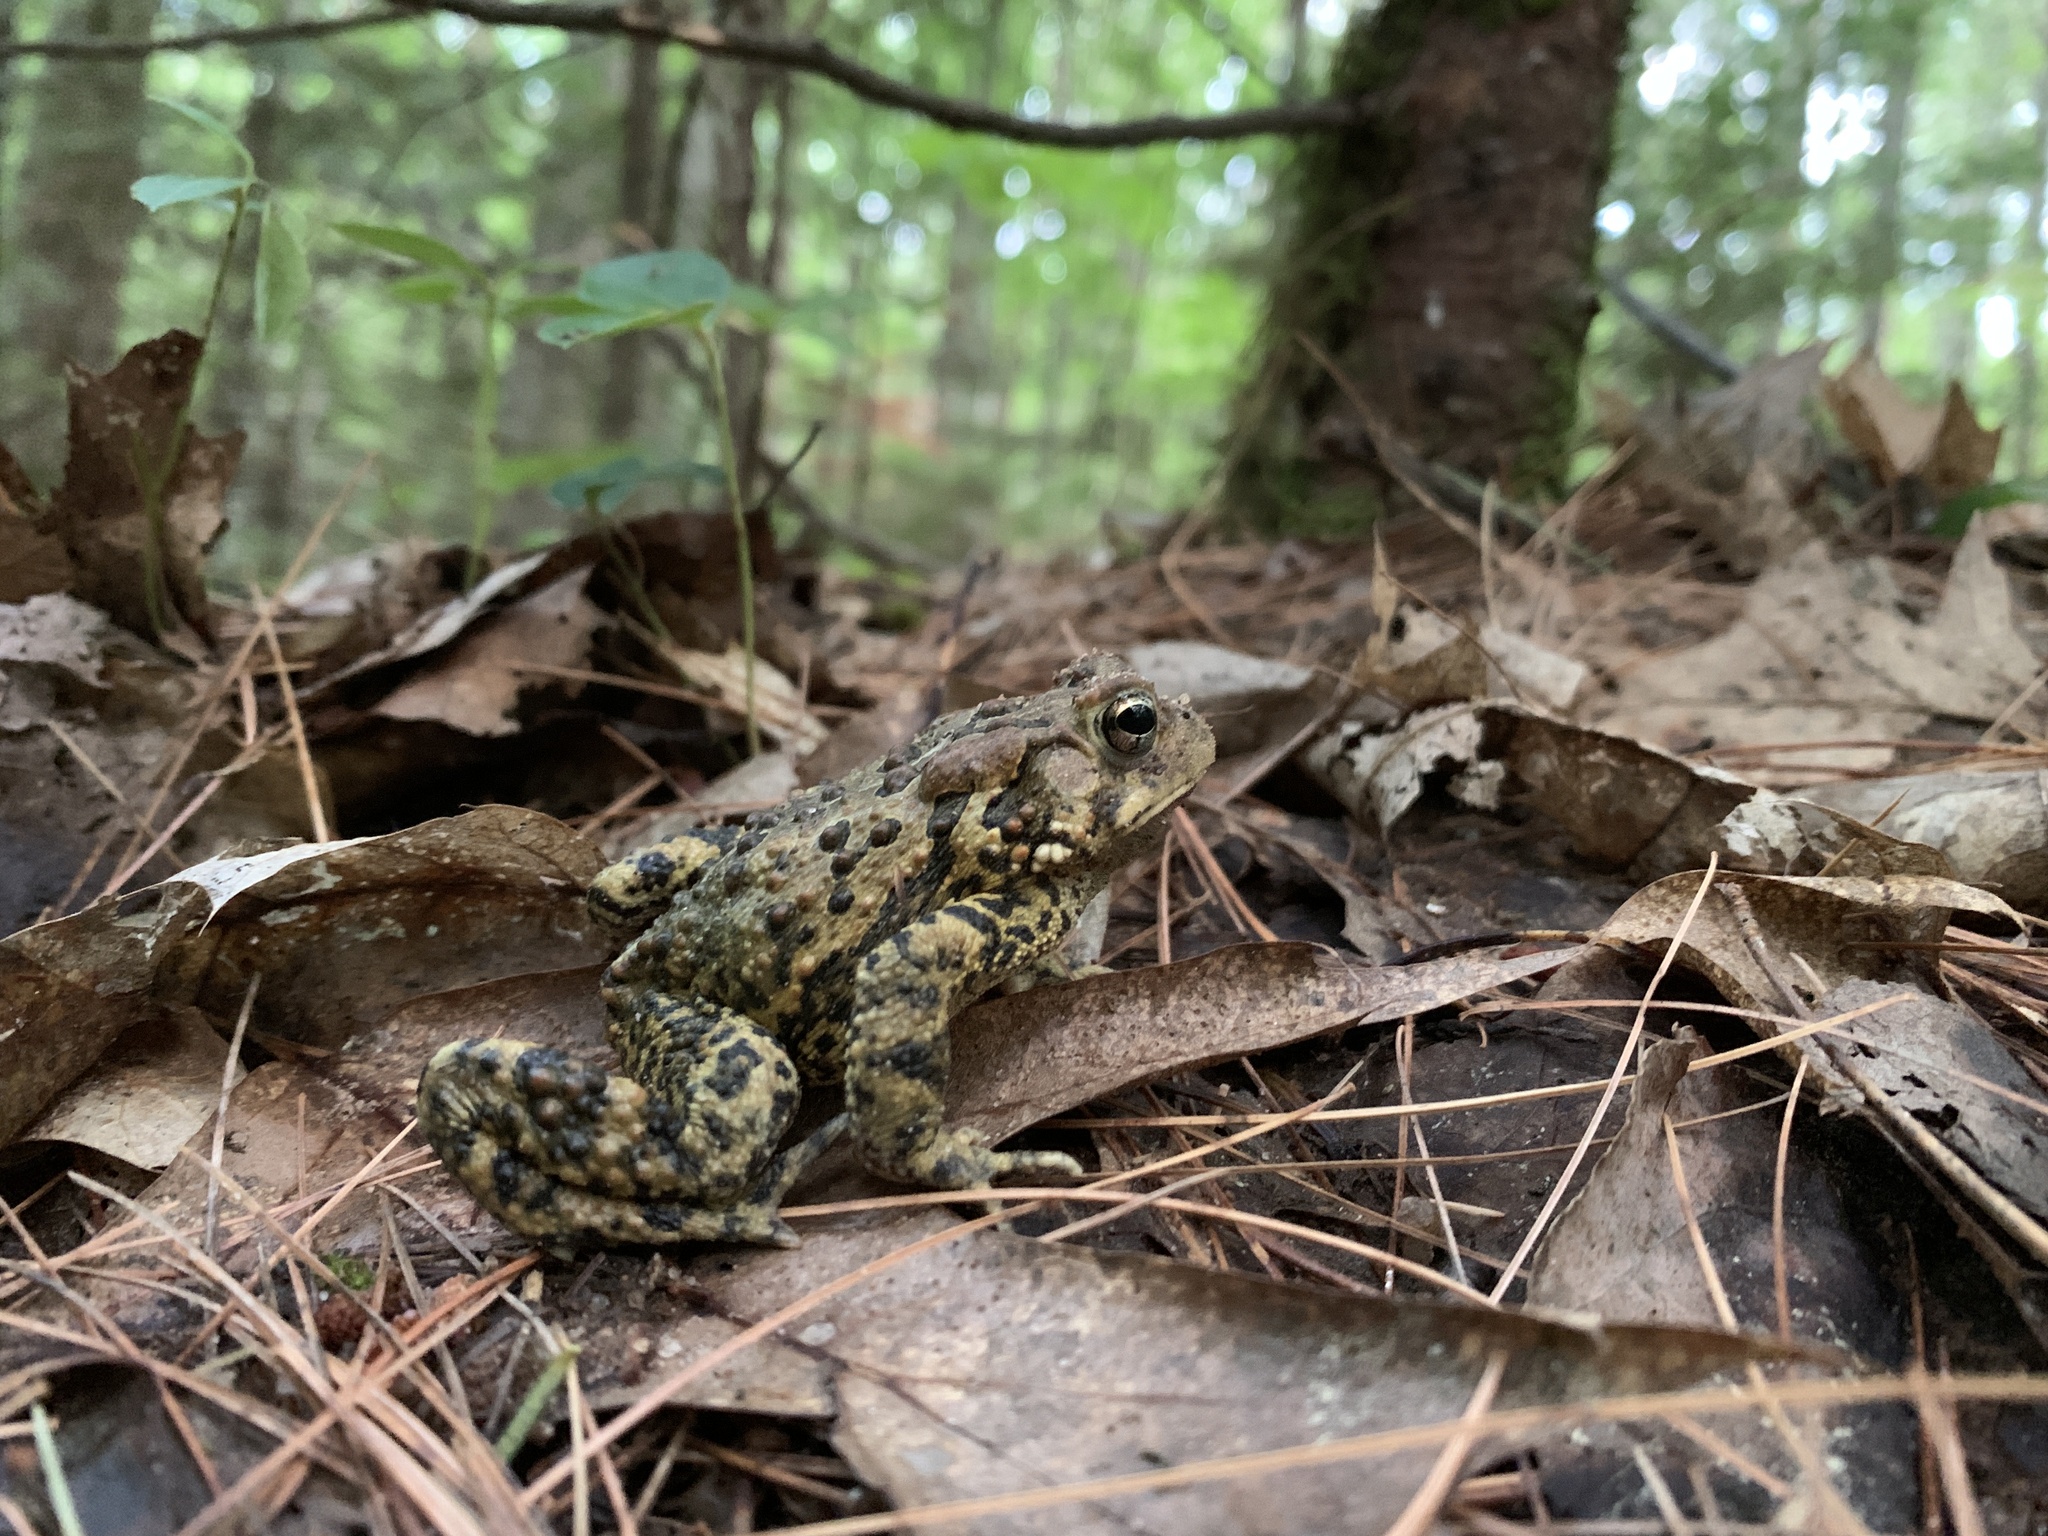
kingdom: Animalia
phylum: Chordata
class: Amphibia
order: Anura
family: Bufonidae
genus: Anaxyrus
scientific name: Anaxyrus americanus
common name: American toad
